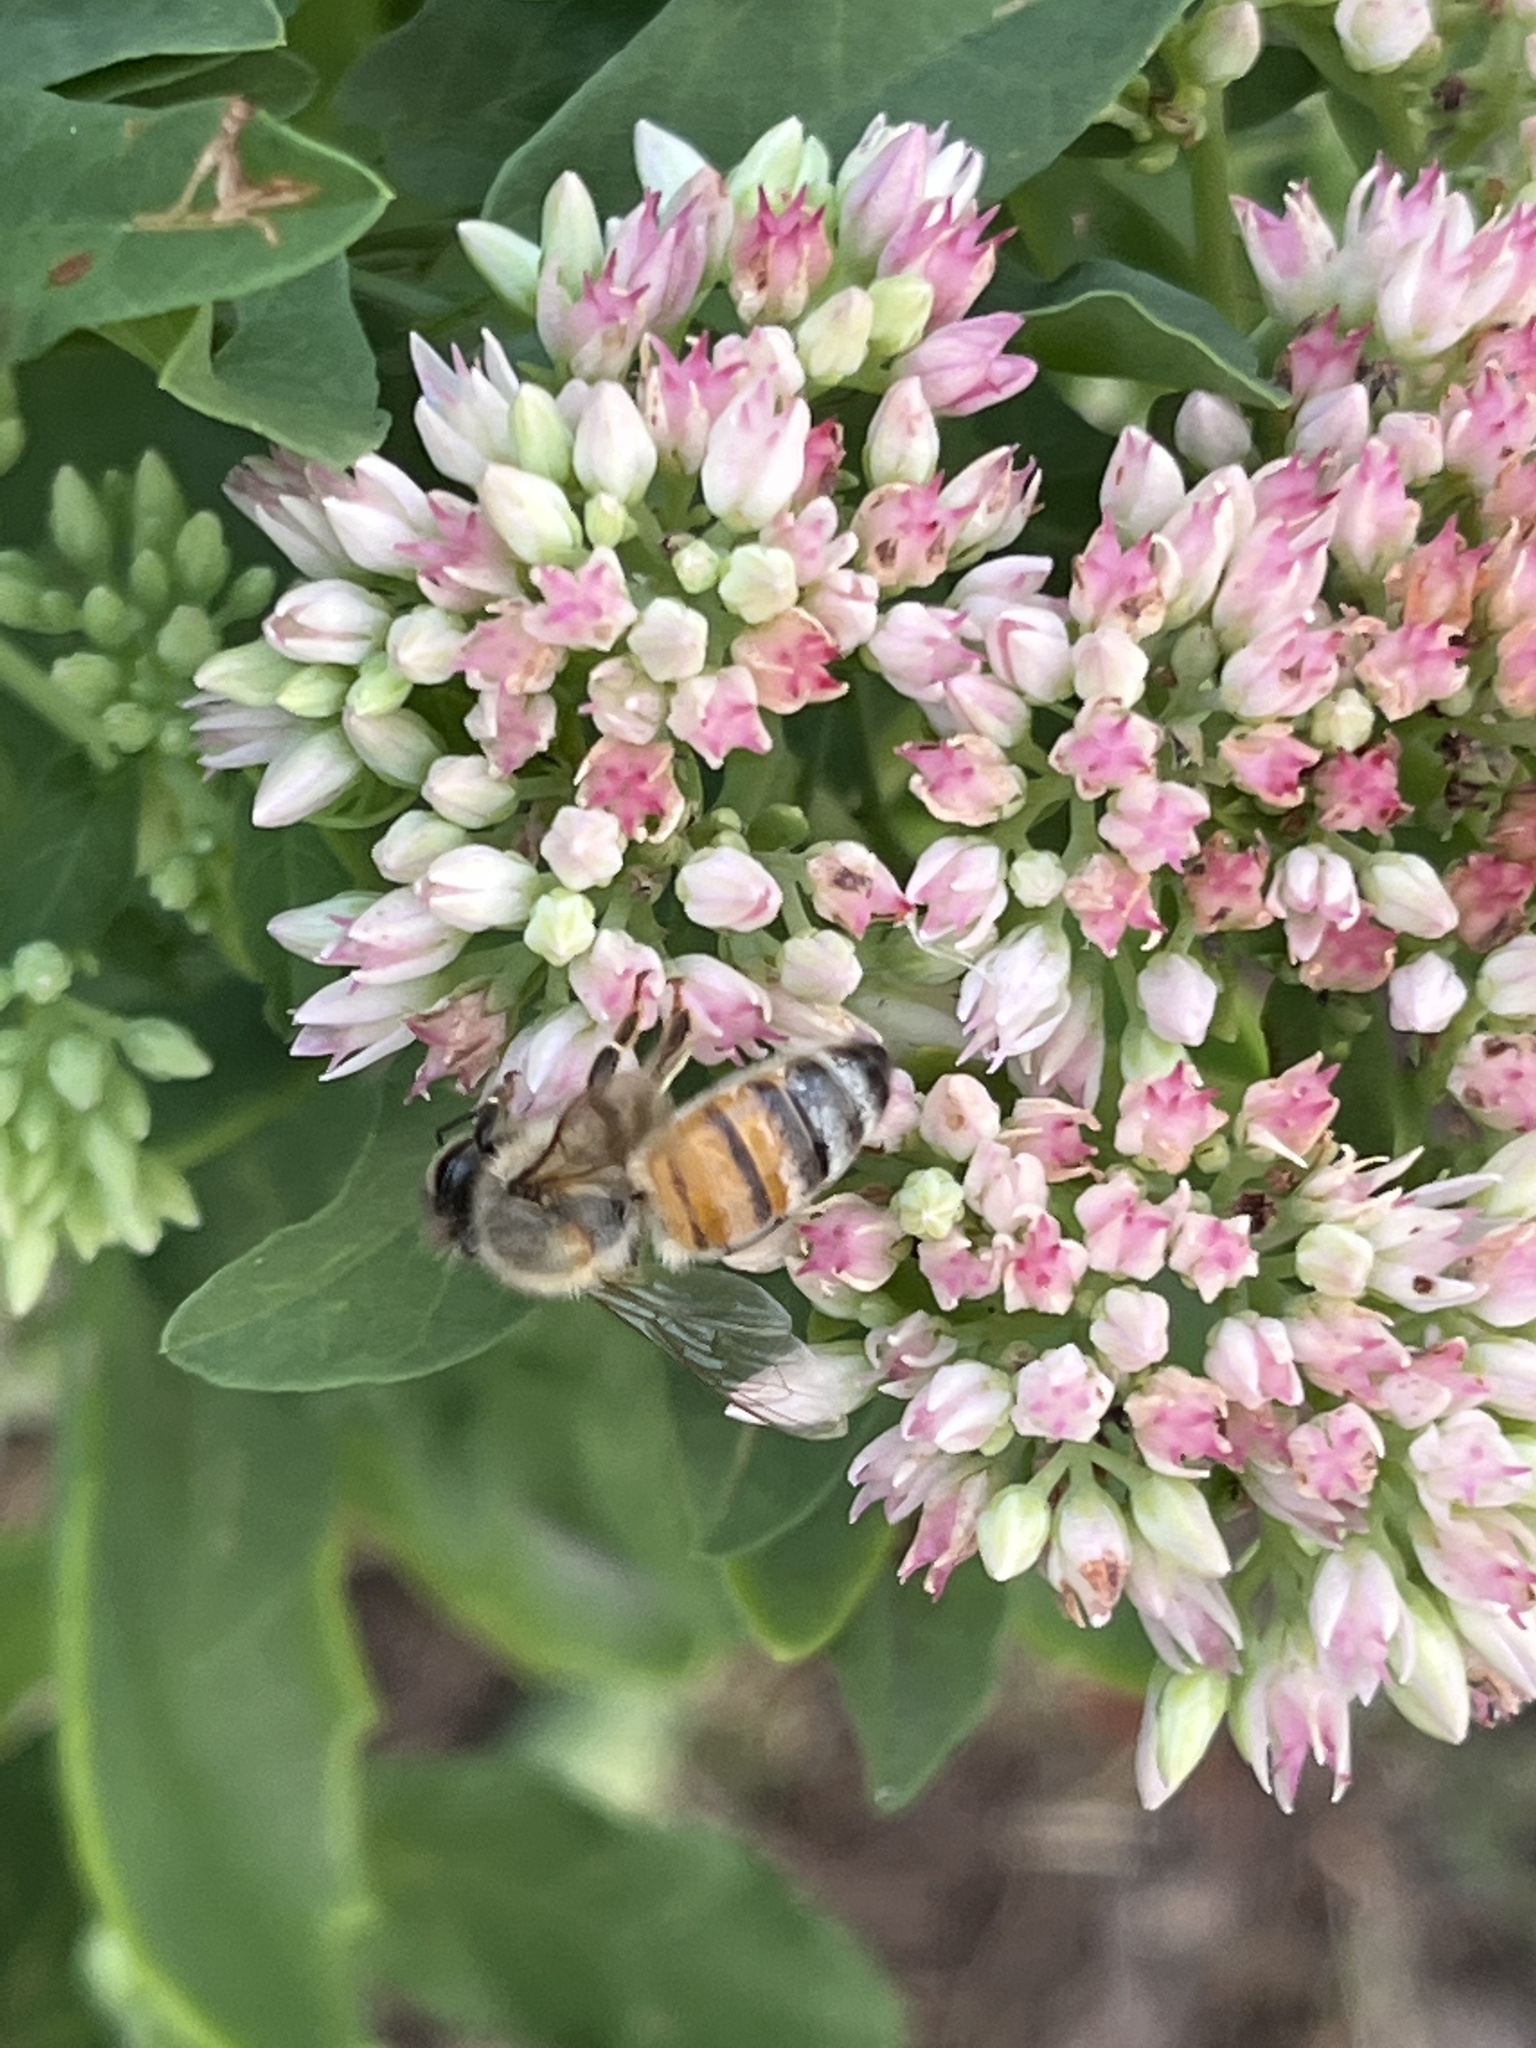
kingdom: Animalia
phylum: Arthropoda
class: Insecta
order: Hymenoptera
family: Apidae
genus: Apis
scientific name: Apis mellifera
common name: Honey bee
